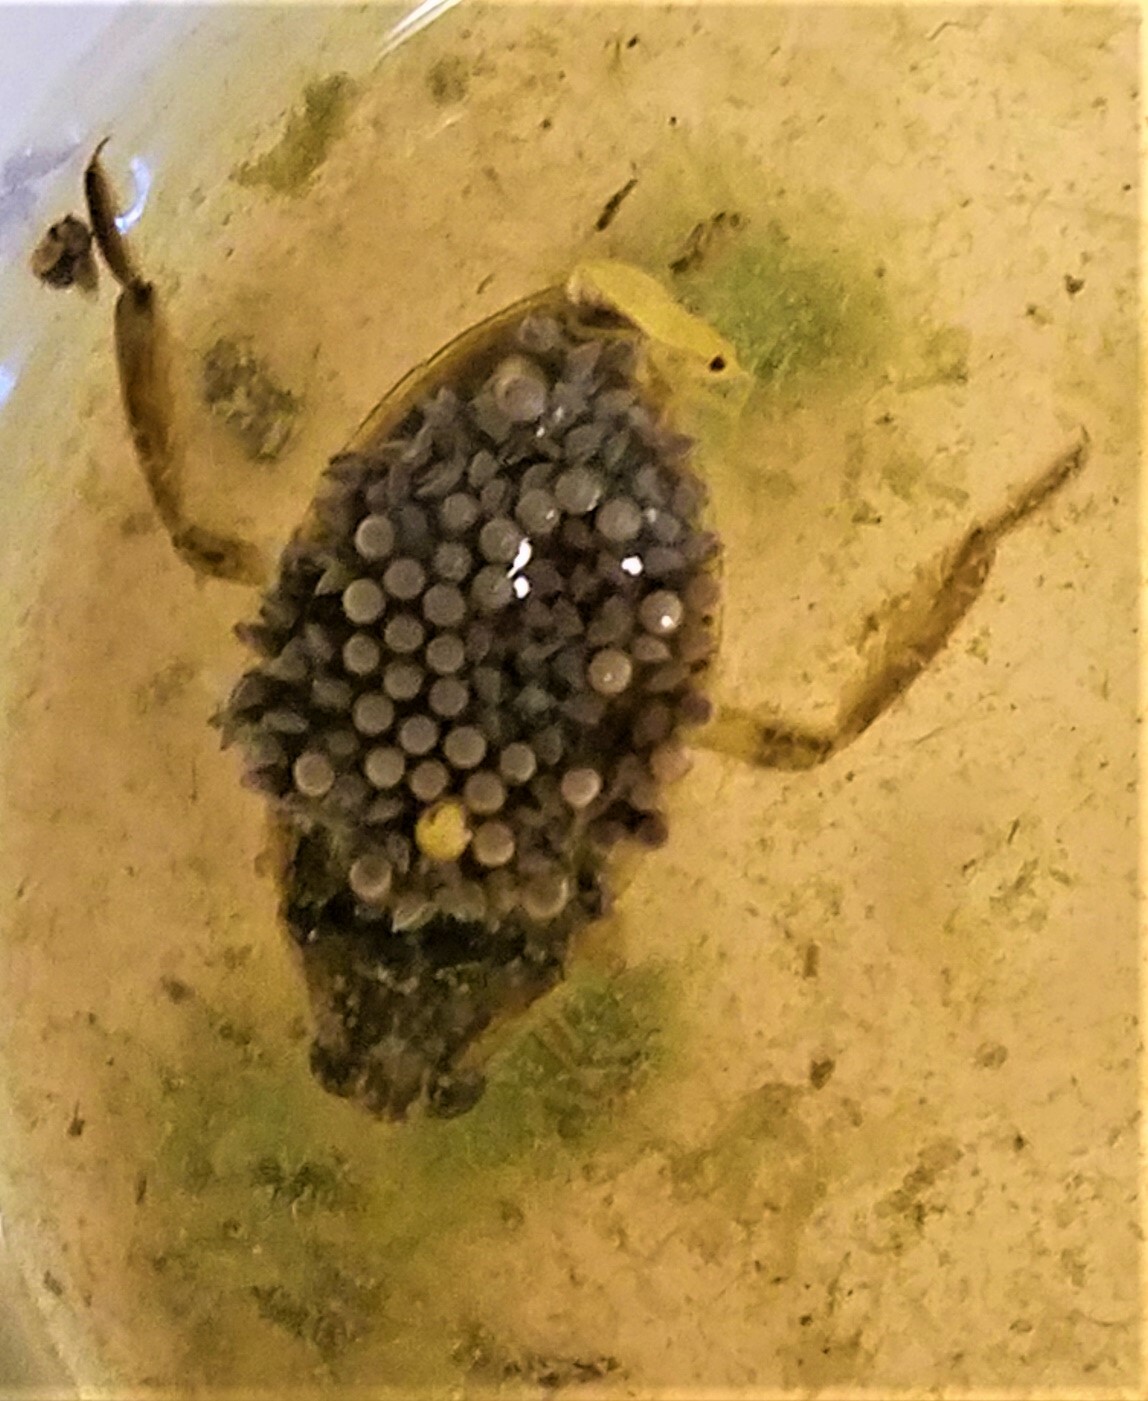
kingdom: Animalia
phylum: Arthropoda
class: Insecta
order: Hemiptera
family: Belostomatidae
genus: Belostoma
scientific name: Belostoma
